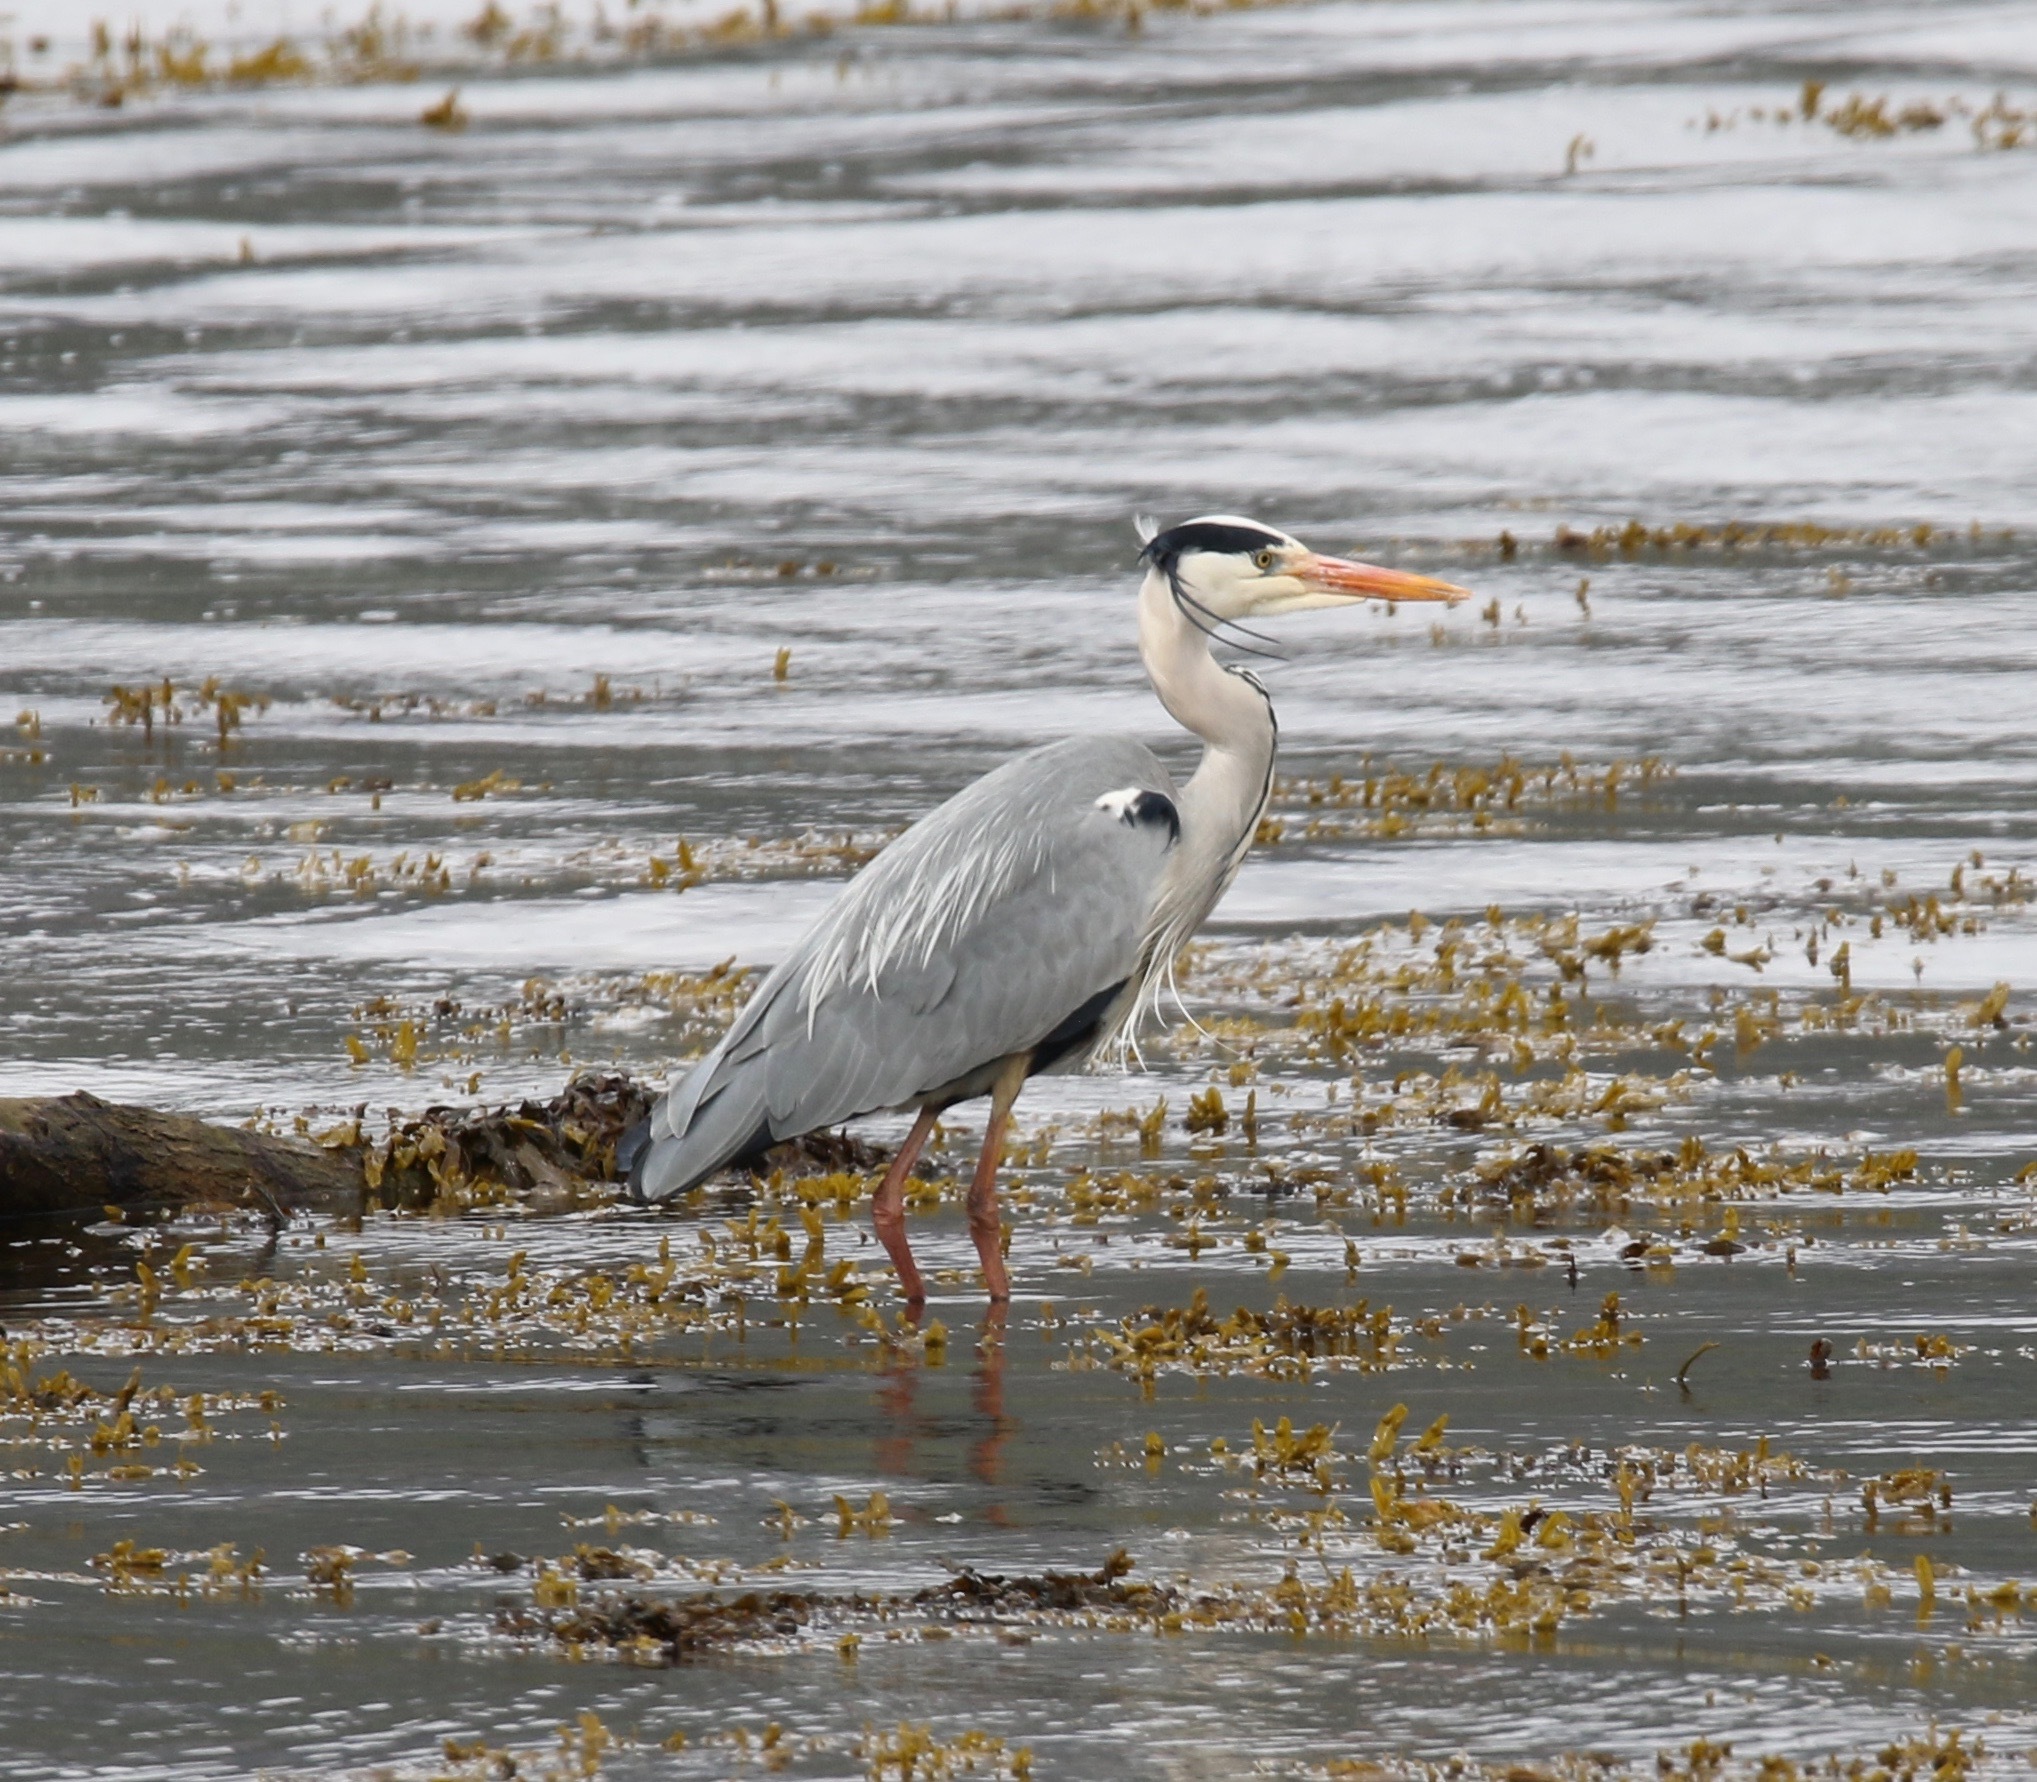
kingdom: Animalia
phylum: Chordata
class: Aves
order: Pelecaniformes
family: Ardeidae
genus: Ardea
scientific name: Ardea cinerea
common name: Grey heron
